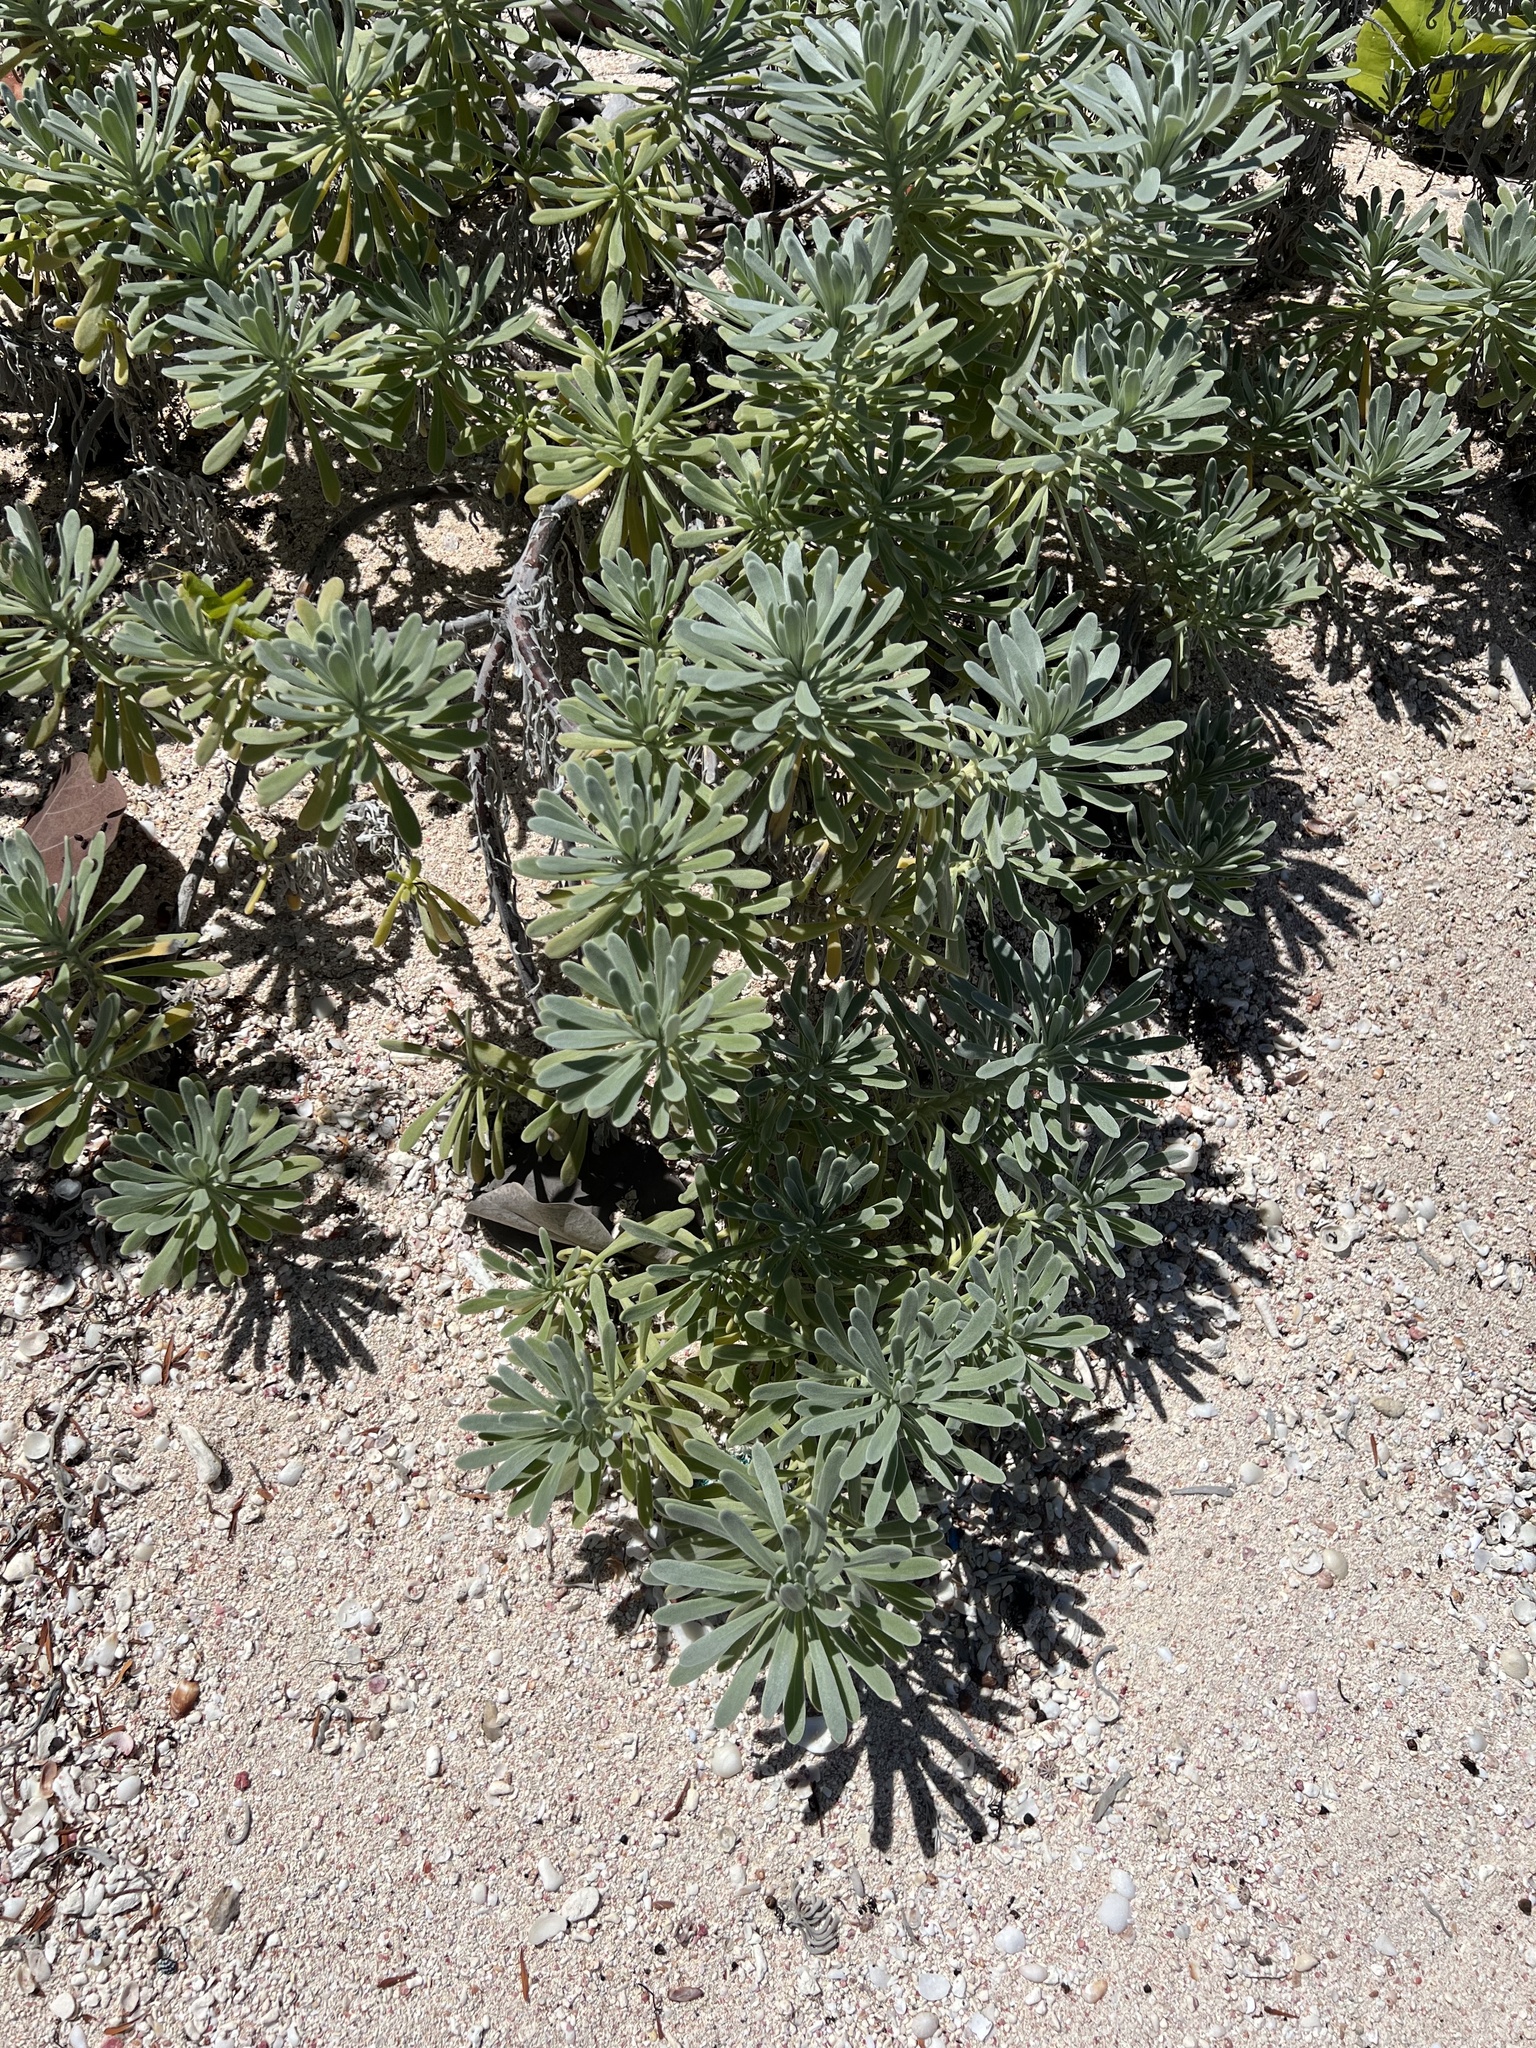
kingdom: Plantae
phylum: Tracheophyta
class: Magnoliopsida
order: Boraginales
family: Heliotropiaceae
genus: Tournefortia
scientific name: Tournefortia gnaphalodes
